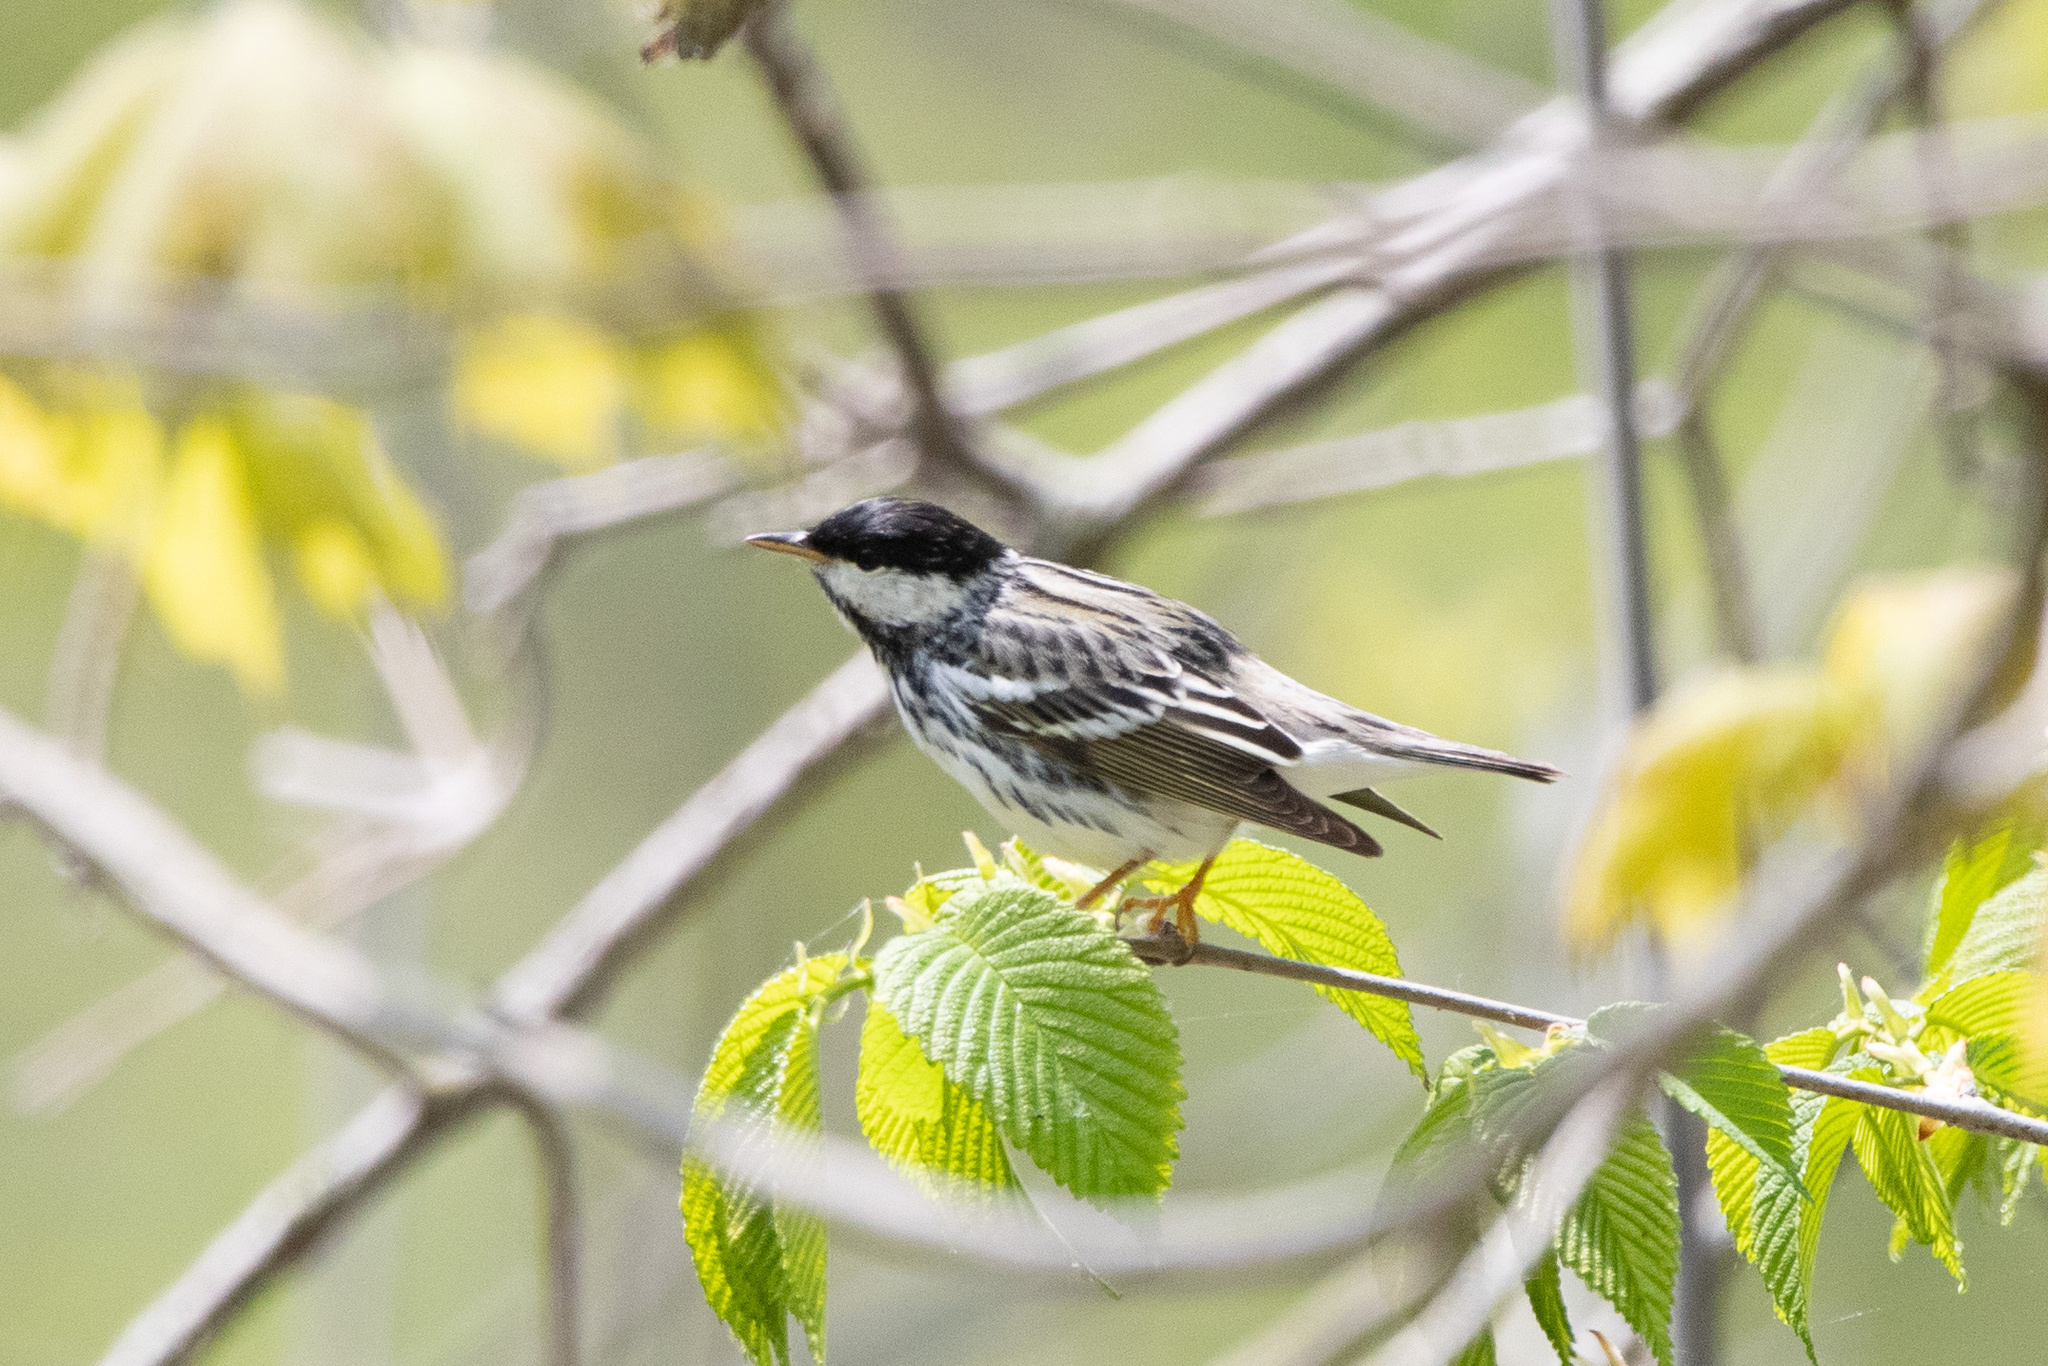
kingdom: Animalia
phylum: Chordata
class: Aves
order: Passeriformes
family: Parulidae
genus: Setophaga
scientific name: Setophaga striata
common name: Blackpoll warbler
